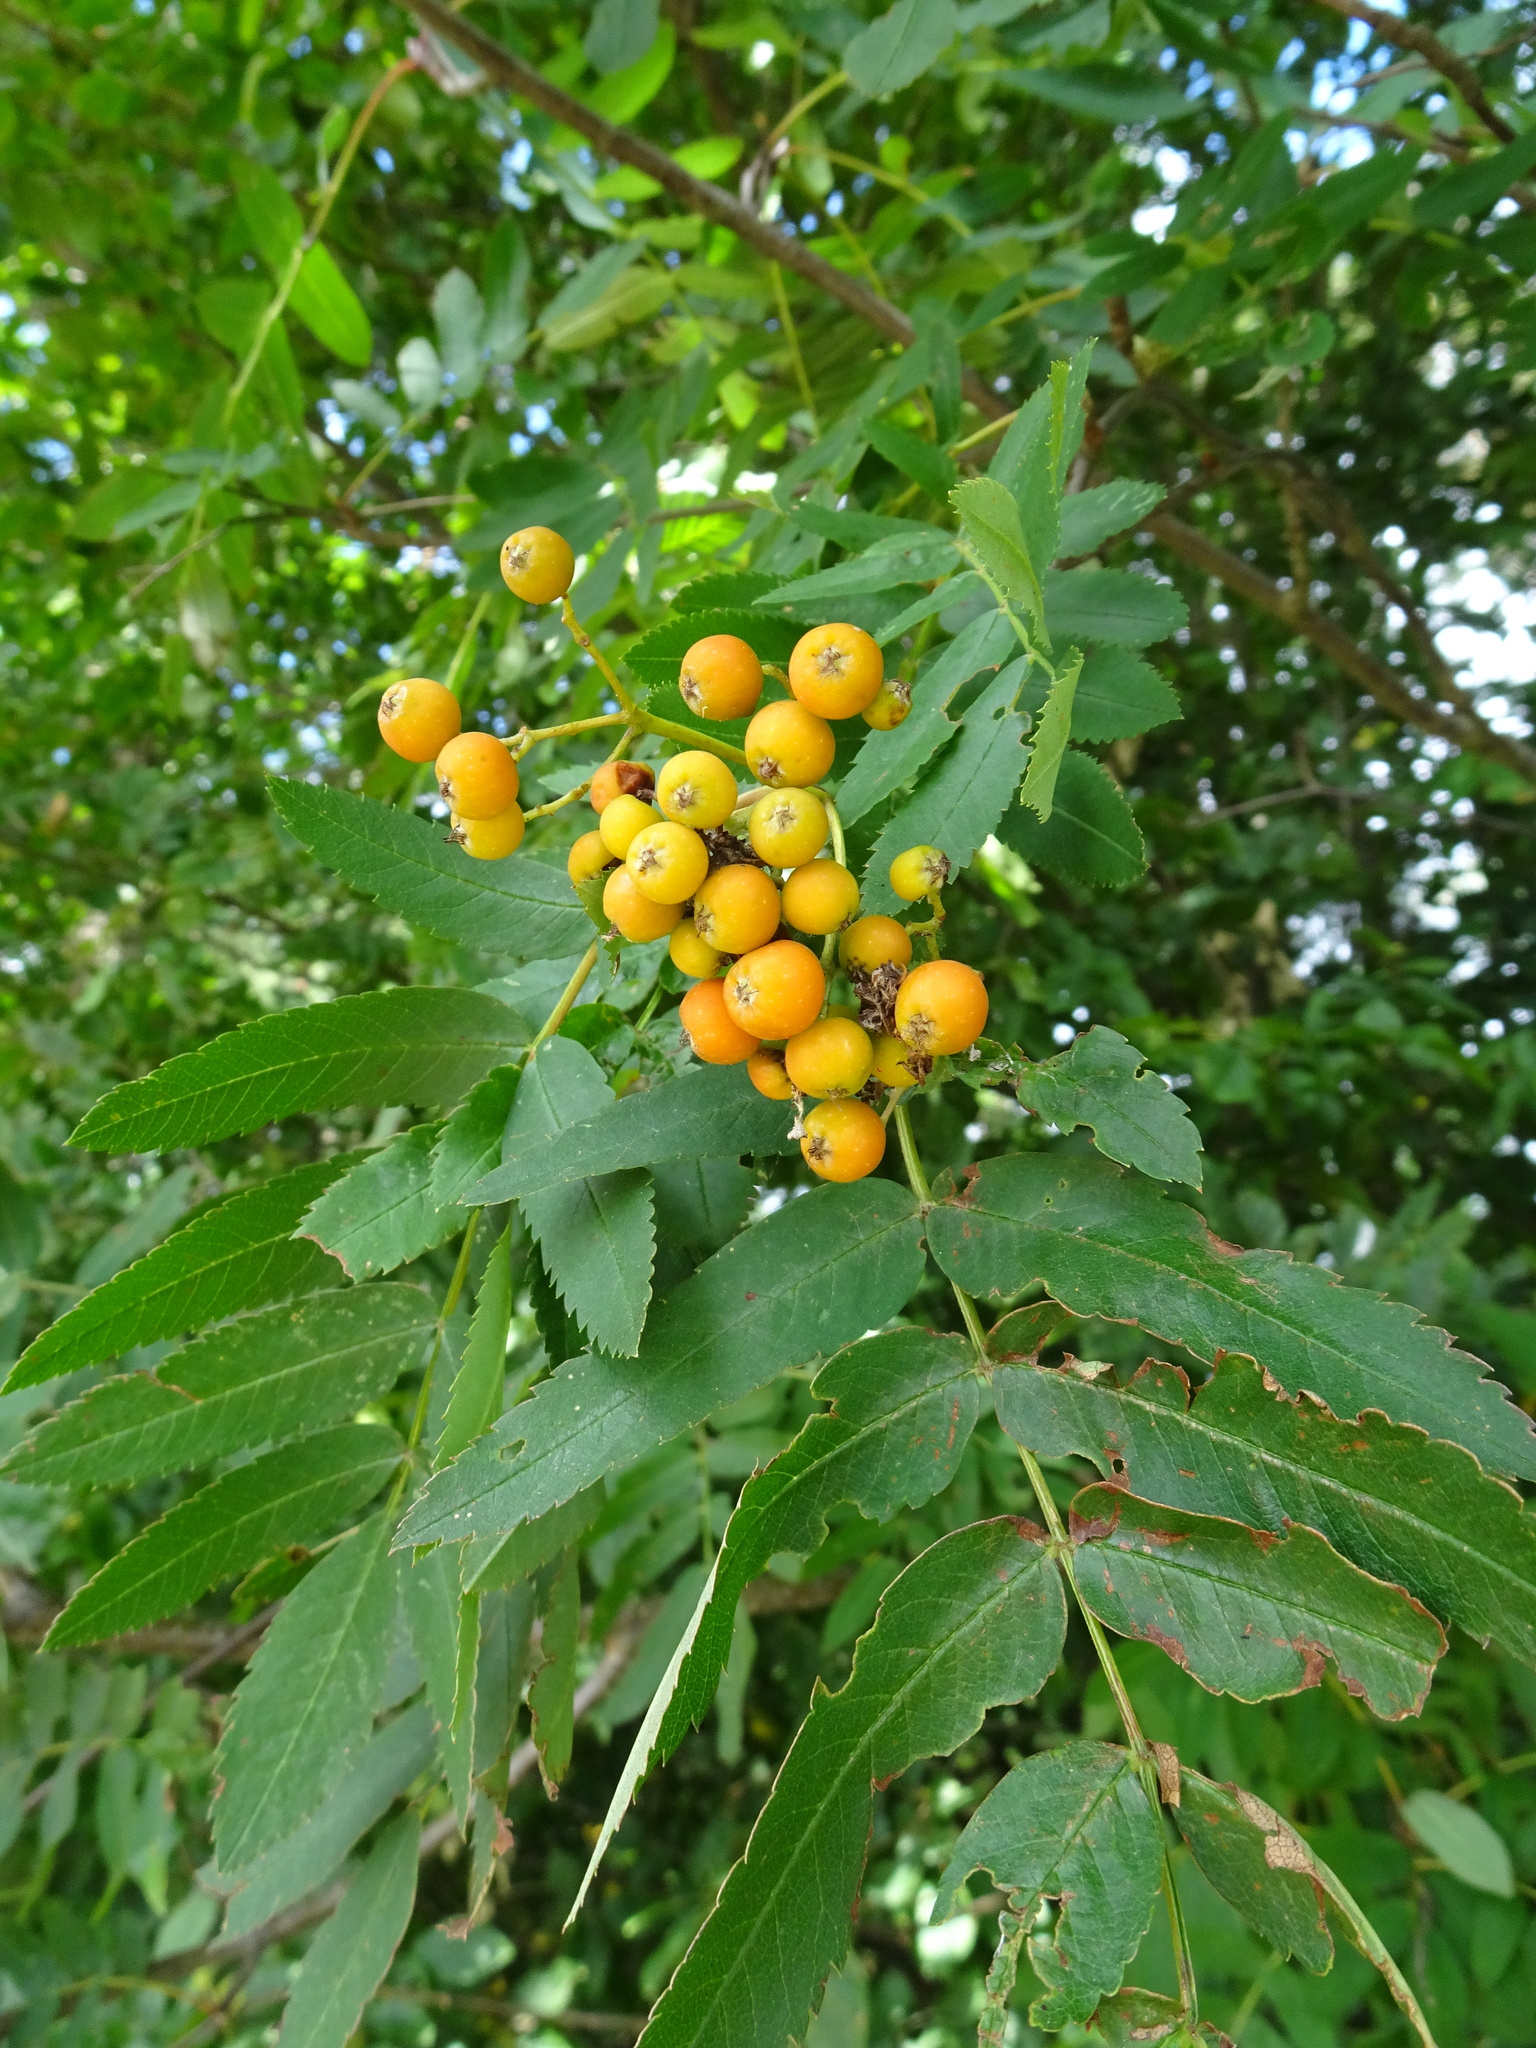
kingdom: Plantae
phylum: Tracheophyta
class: Magnoliopsida
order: Rosales
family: Rosaceae
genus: Sorbus
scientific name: Sorbus aucuparia
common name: Rowan
